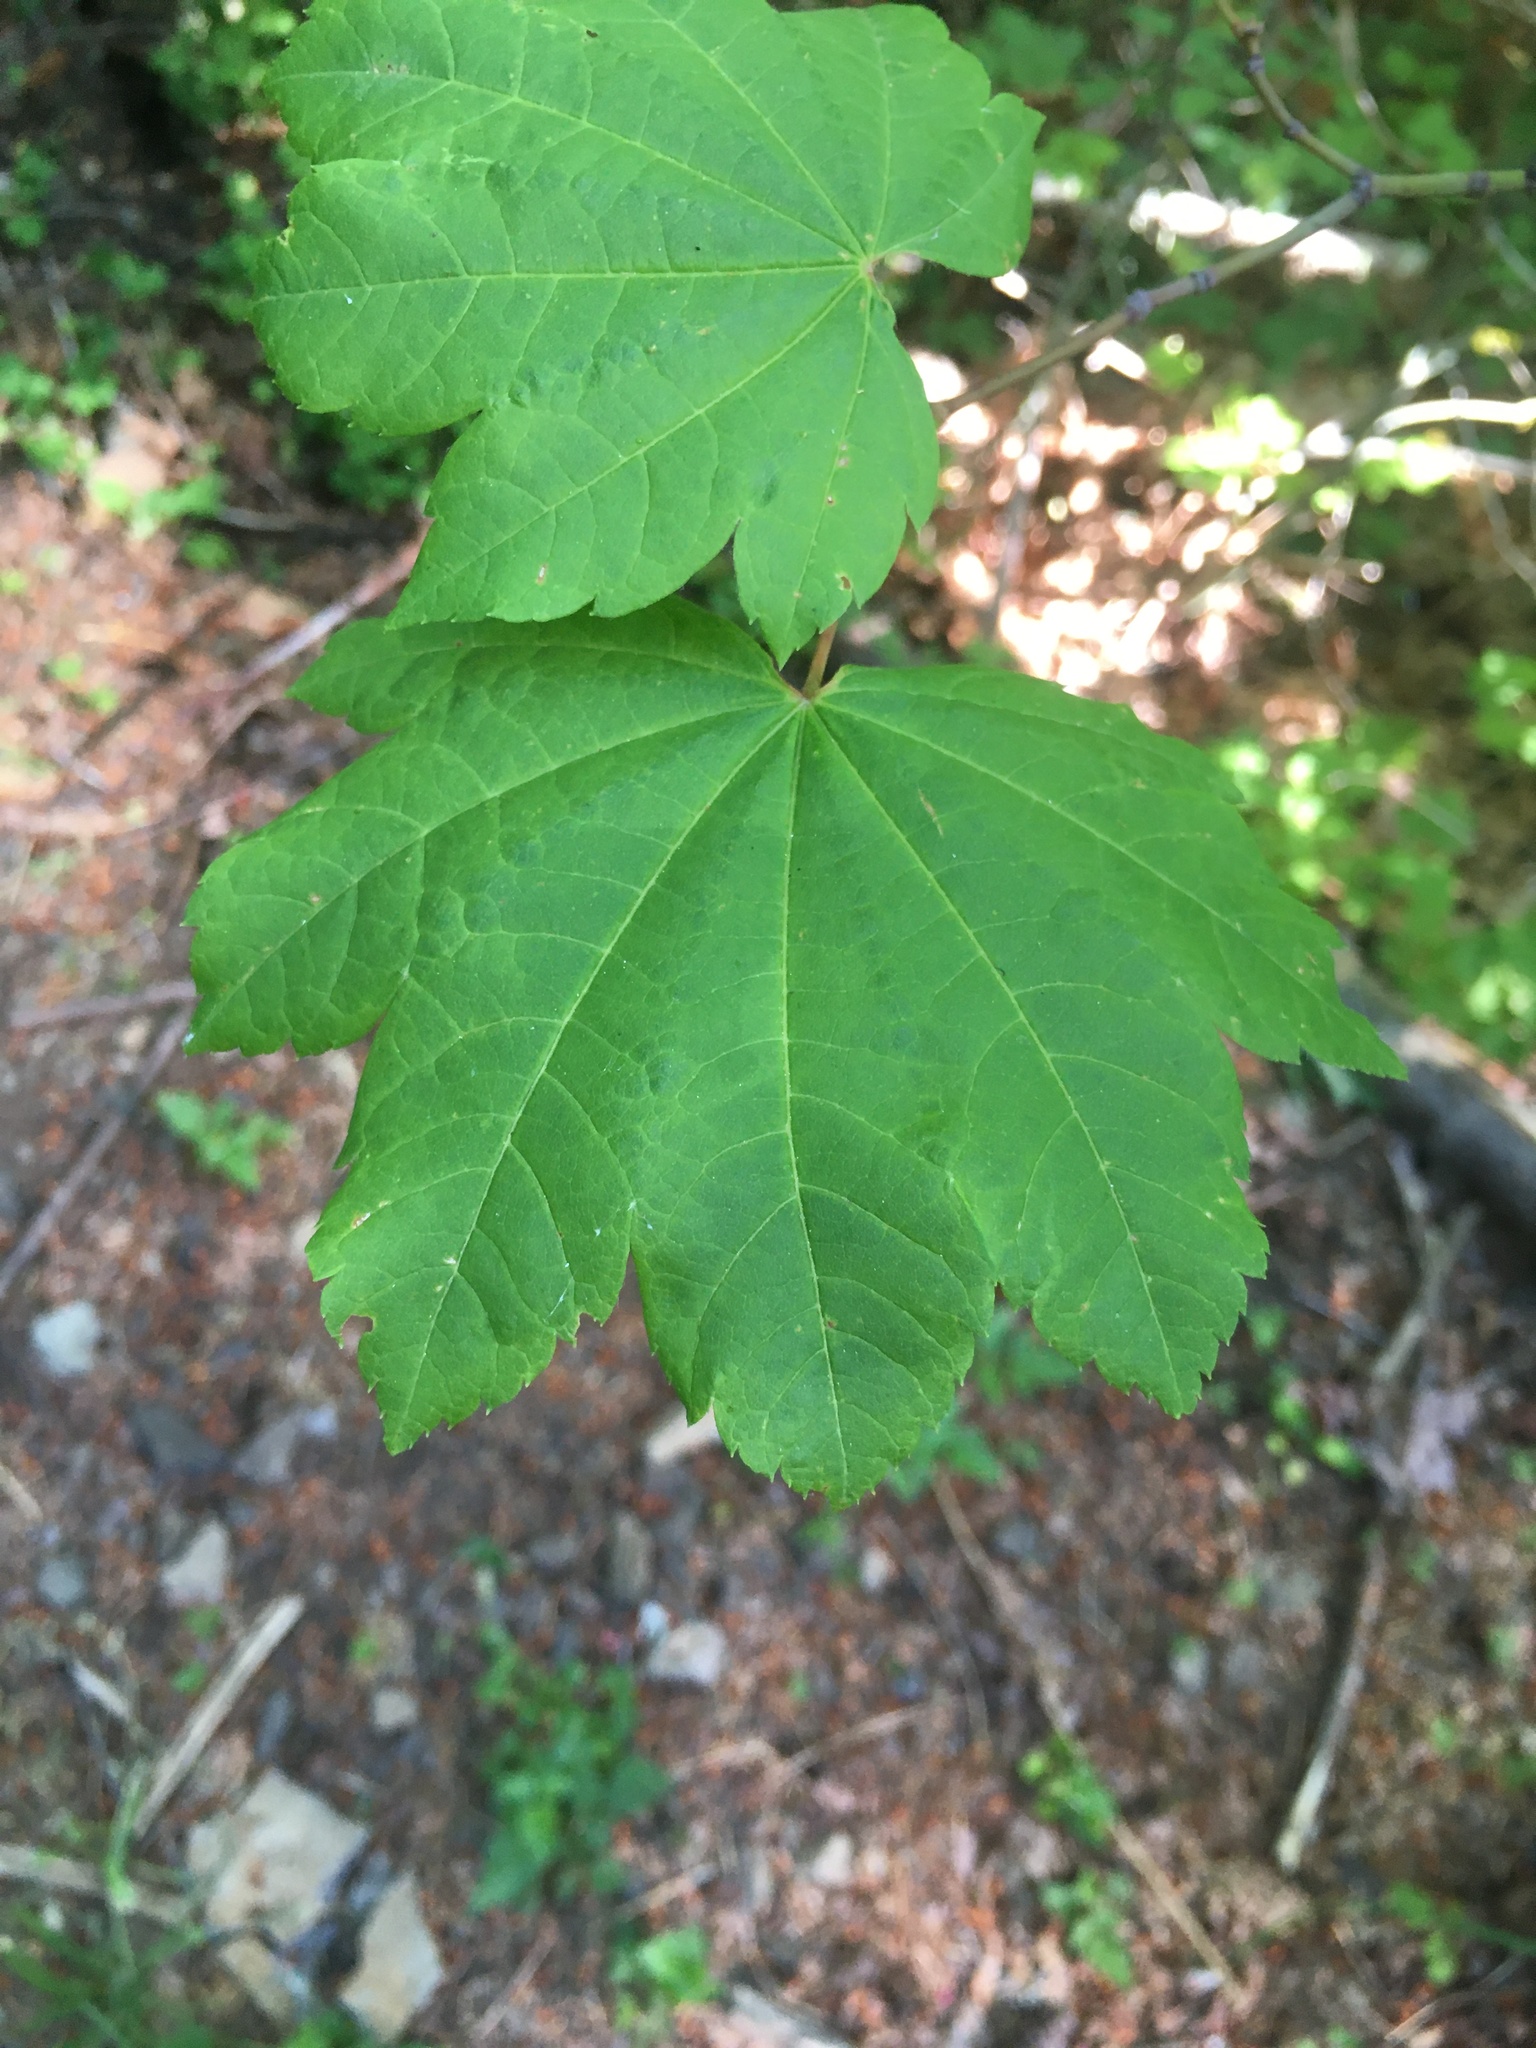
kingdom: Plantae
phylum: Tracheophyta
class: Magnoliopsida
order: Sapindales
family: Sapindaceae
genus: Acer
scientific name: Acer circinatum
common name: Vine maple
